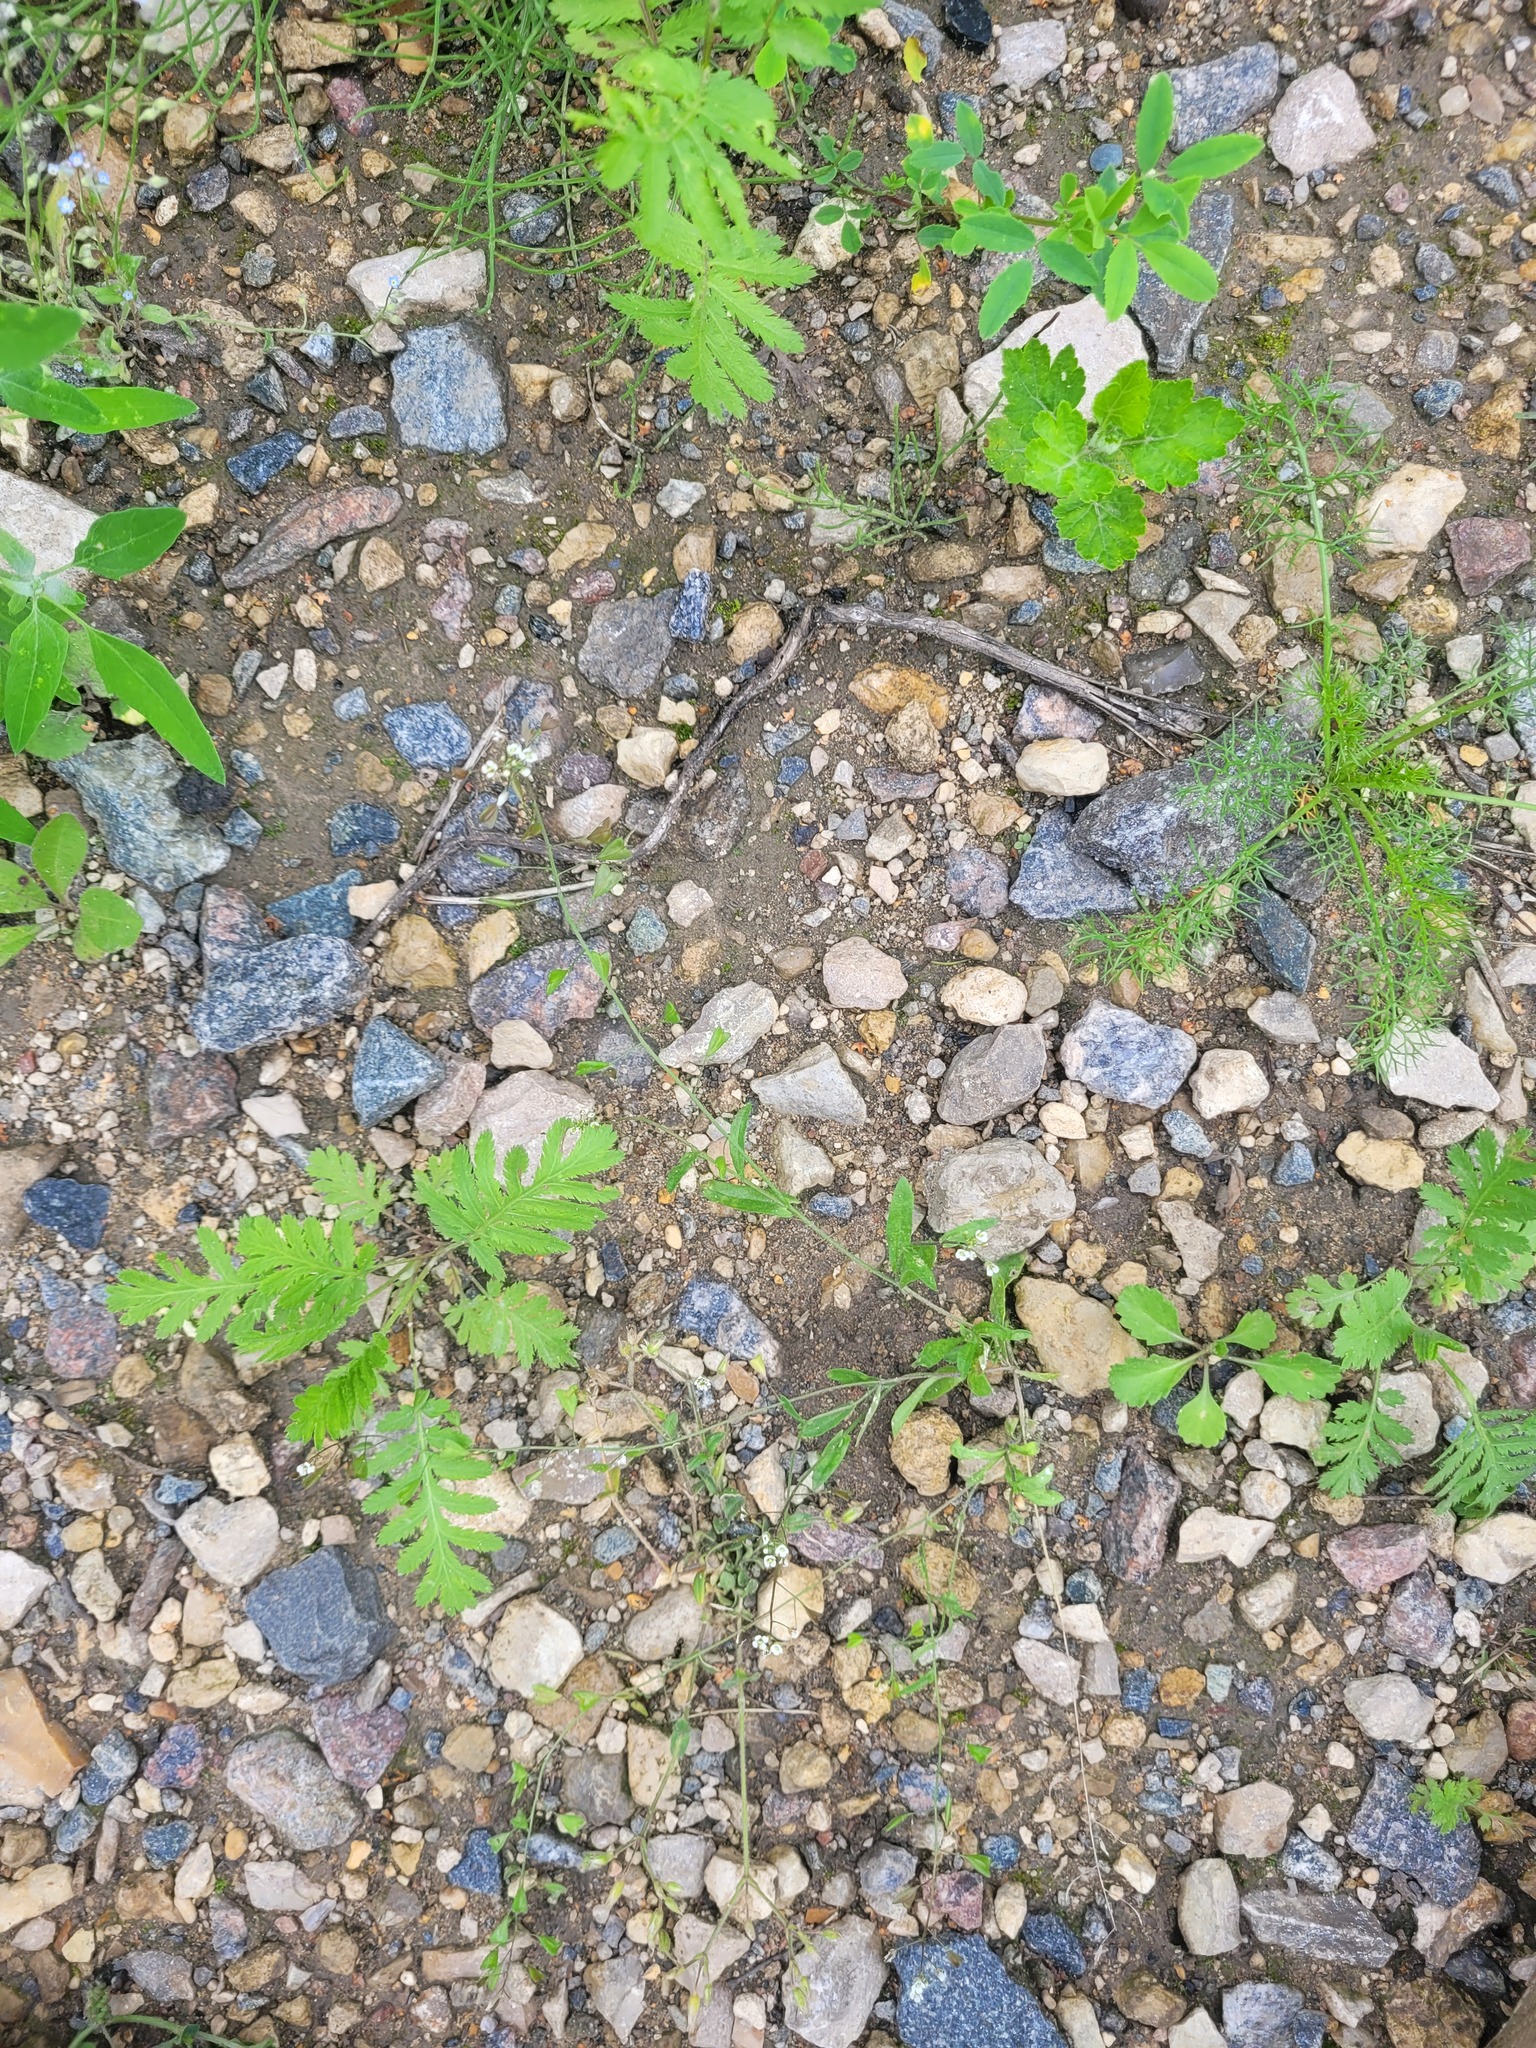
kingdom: Plantae
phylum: Tracheophyta
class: Magnoliopsida
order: Brassicales
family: Brassicaceae
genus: Capsella
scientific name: Capsella bursa-pastoris
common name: Shepherd's purse
